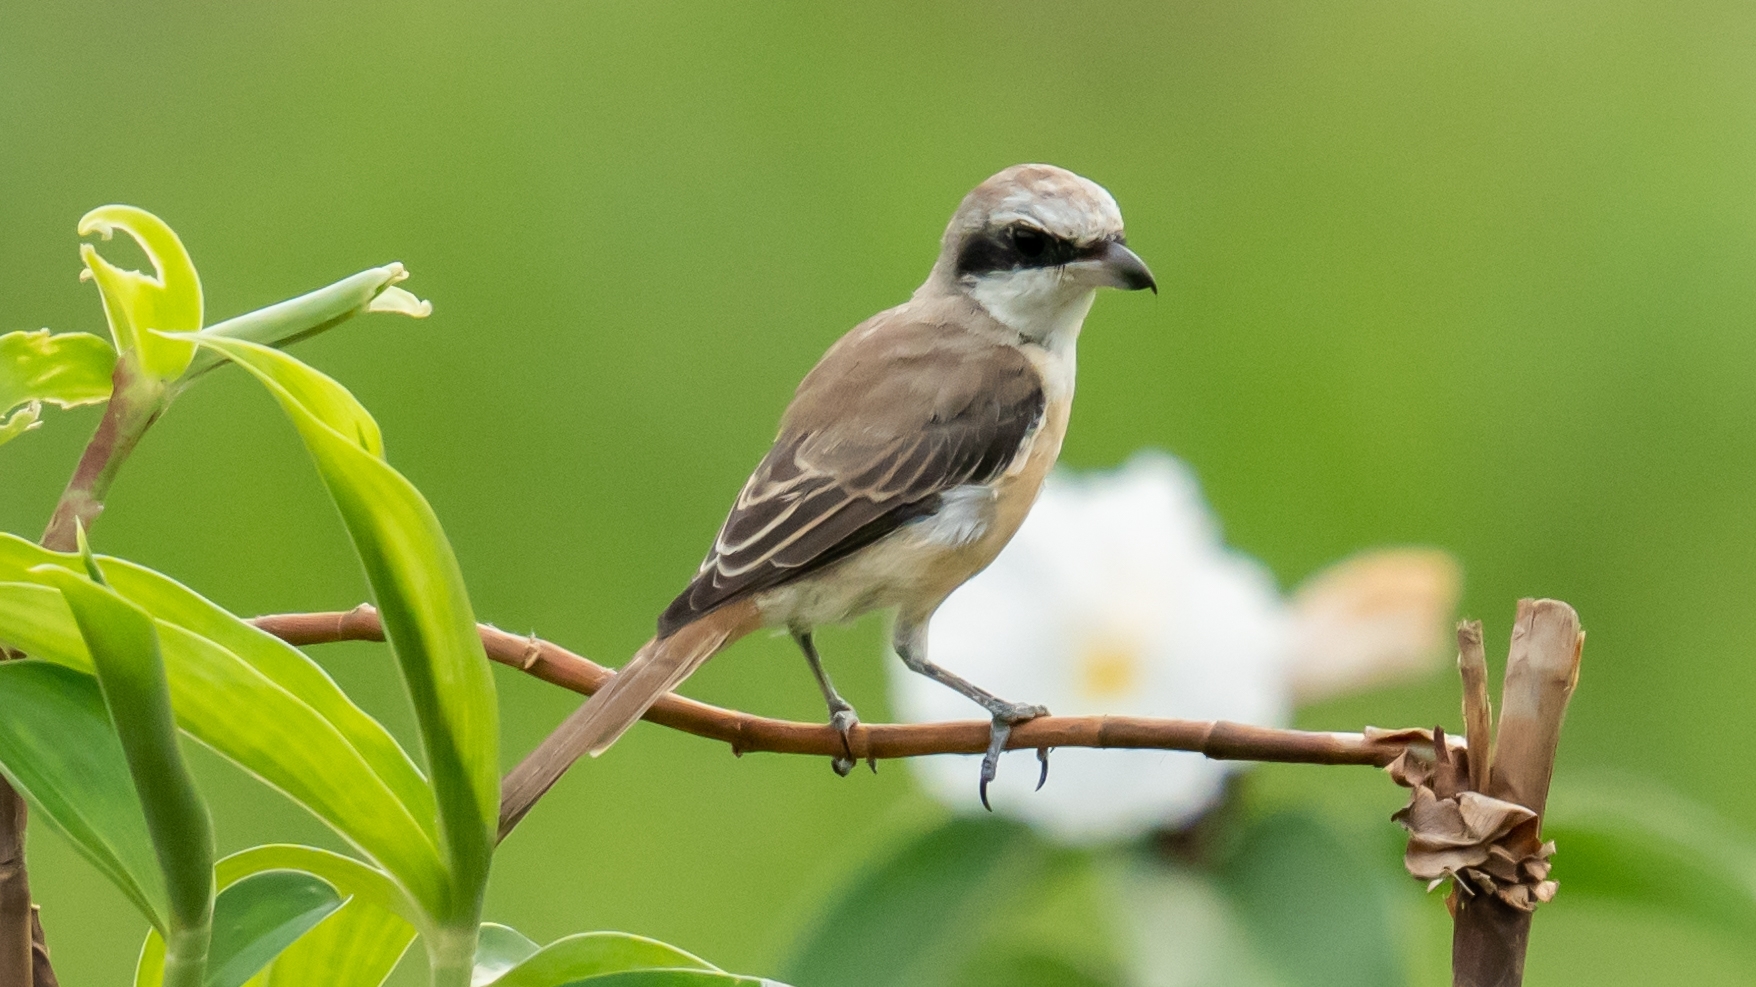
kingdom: Animalia
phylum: Chordata
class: Aves
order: Passeriformes
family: Laniidae
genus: Lanius
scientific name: Lanius cristatus
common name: Brown shrike
